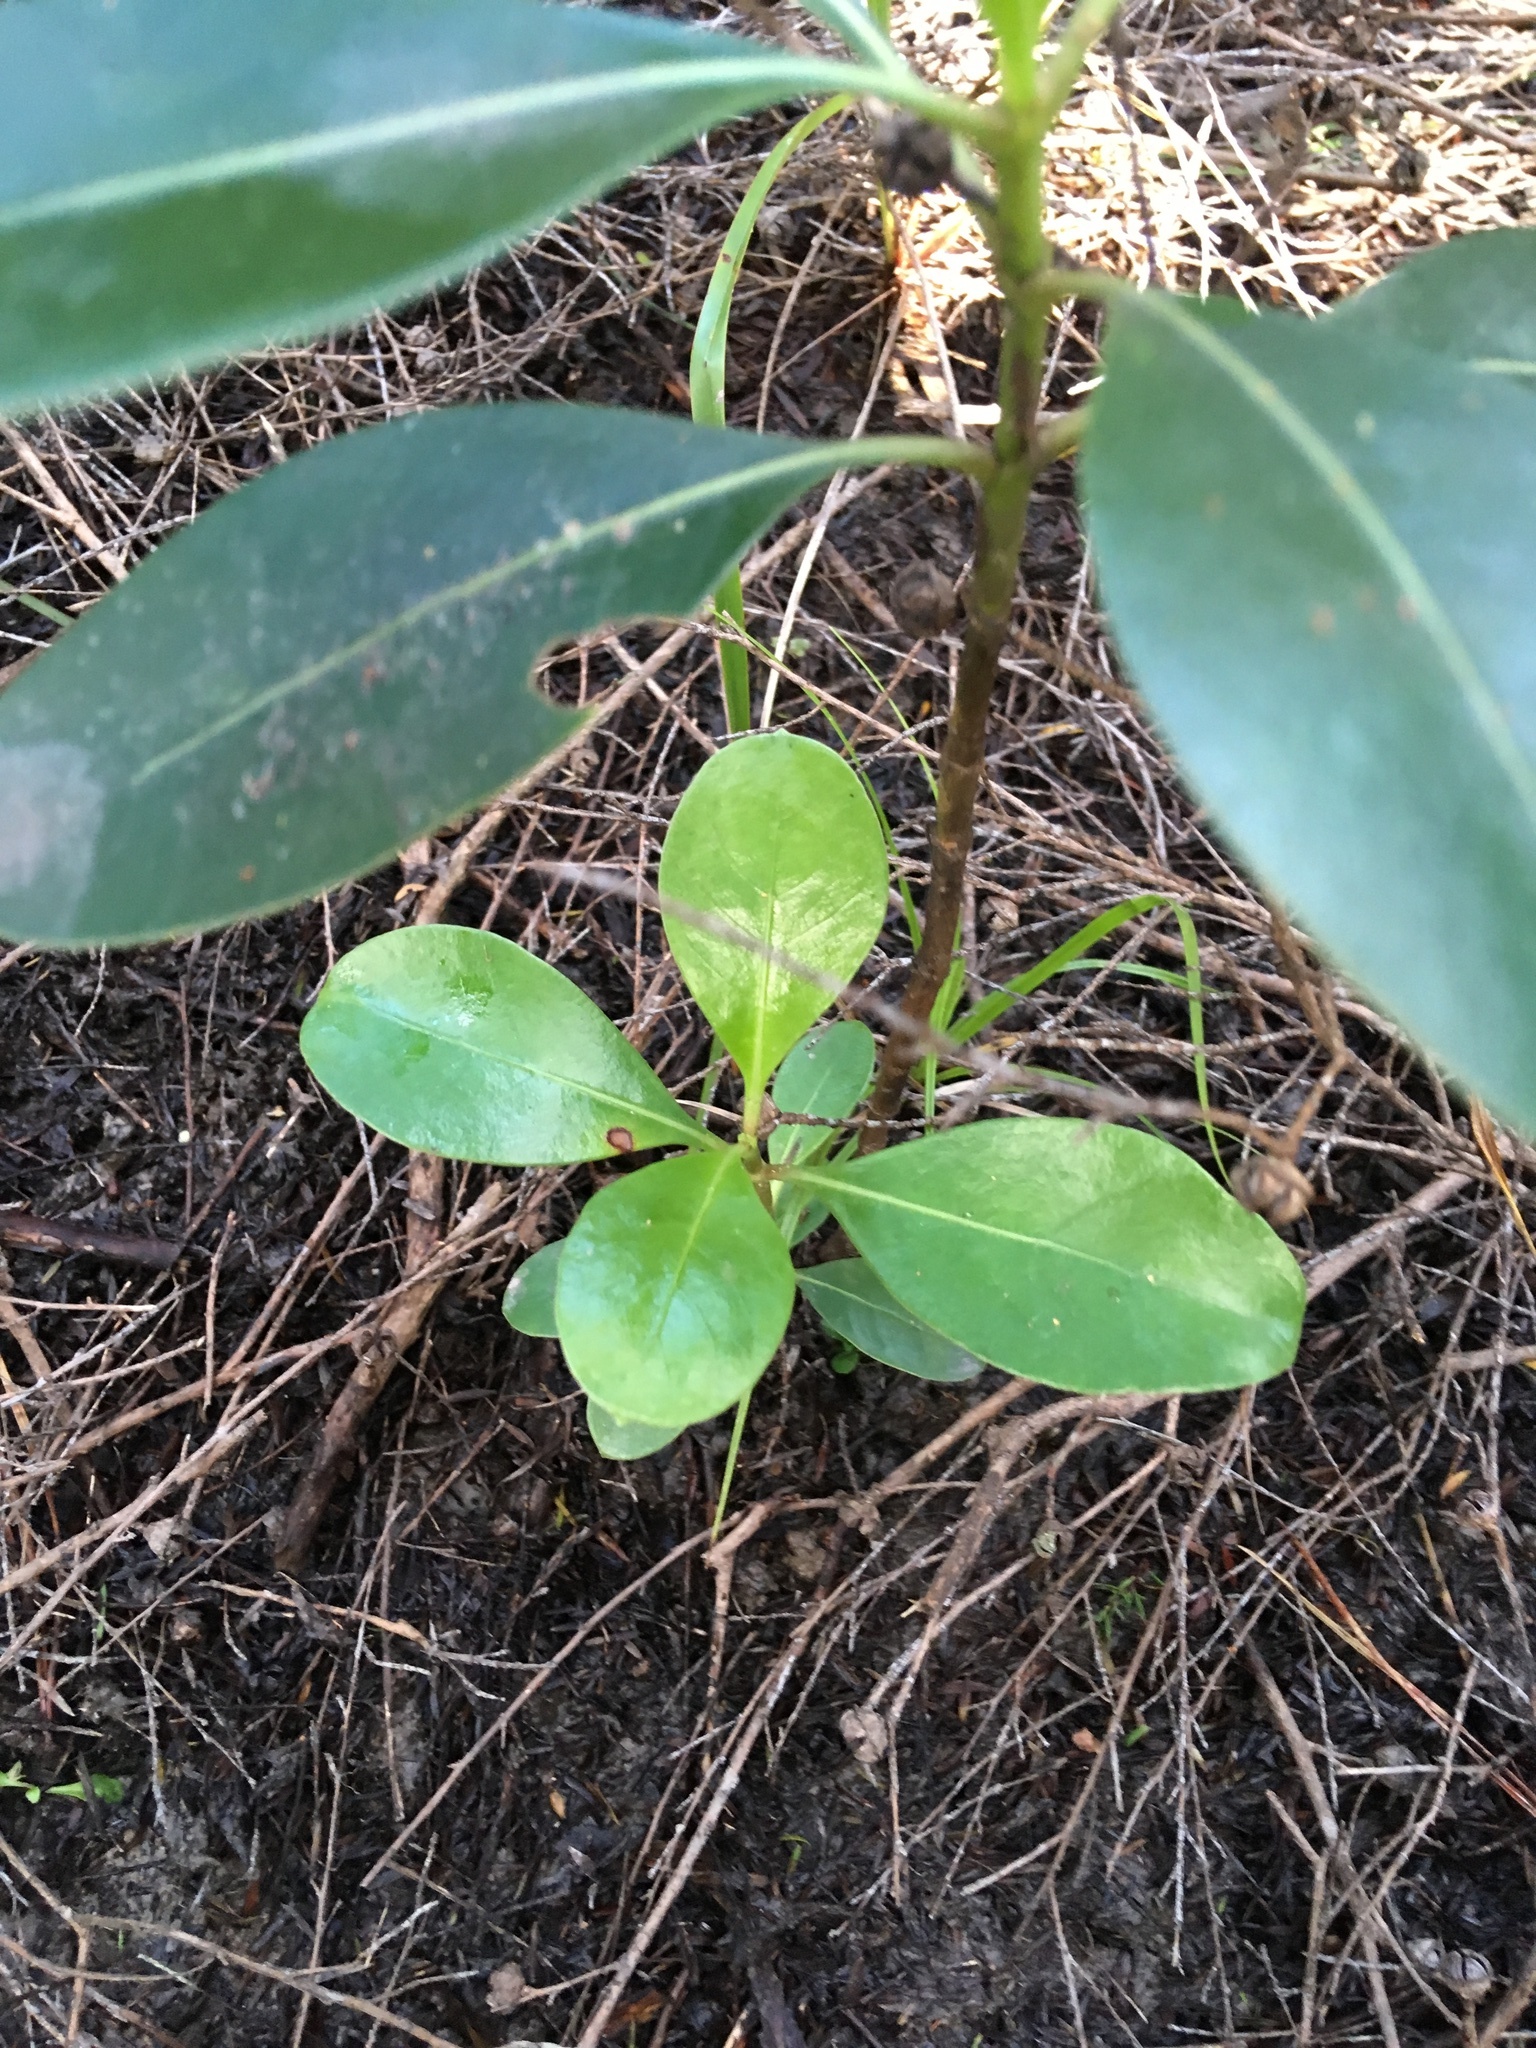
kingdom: Plantae
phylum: Tracheophyta
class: Magnoliopsida
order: Gentianales
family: Rubiaceae
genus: Coprosma
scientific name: Coprosma repens
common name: Tree bedstraw
